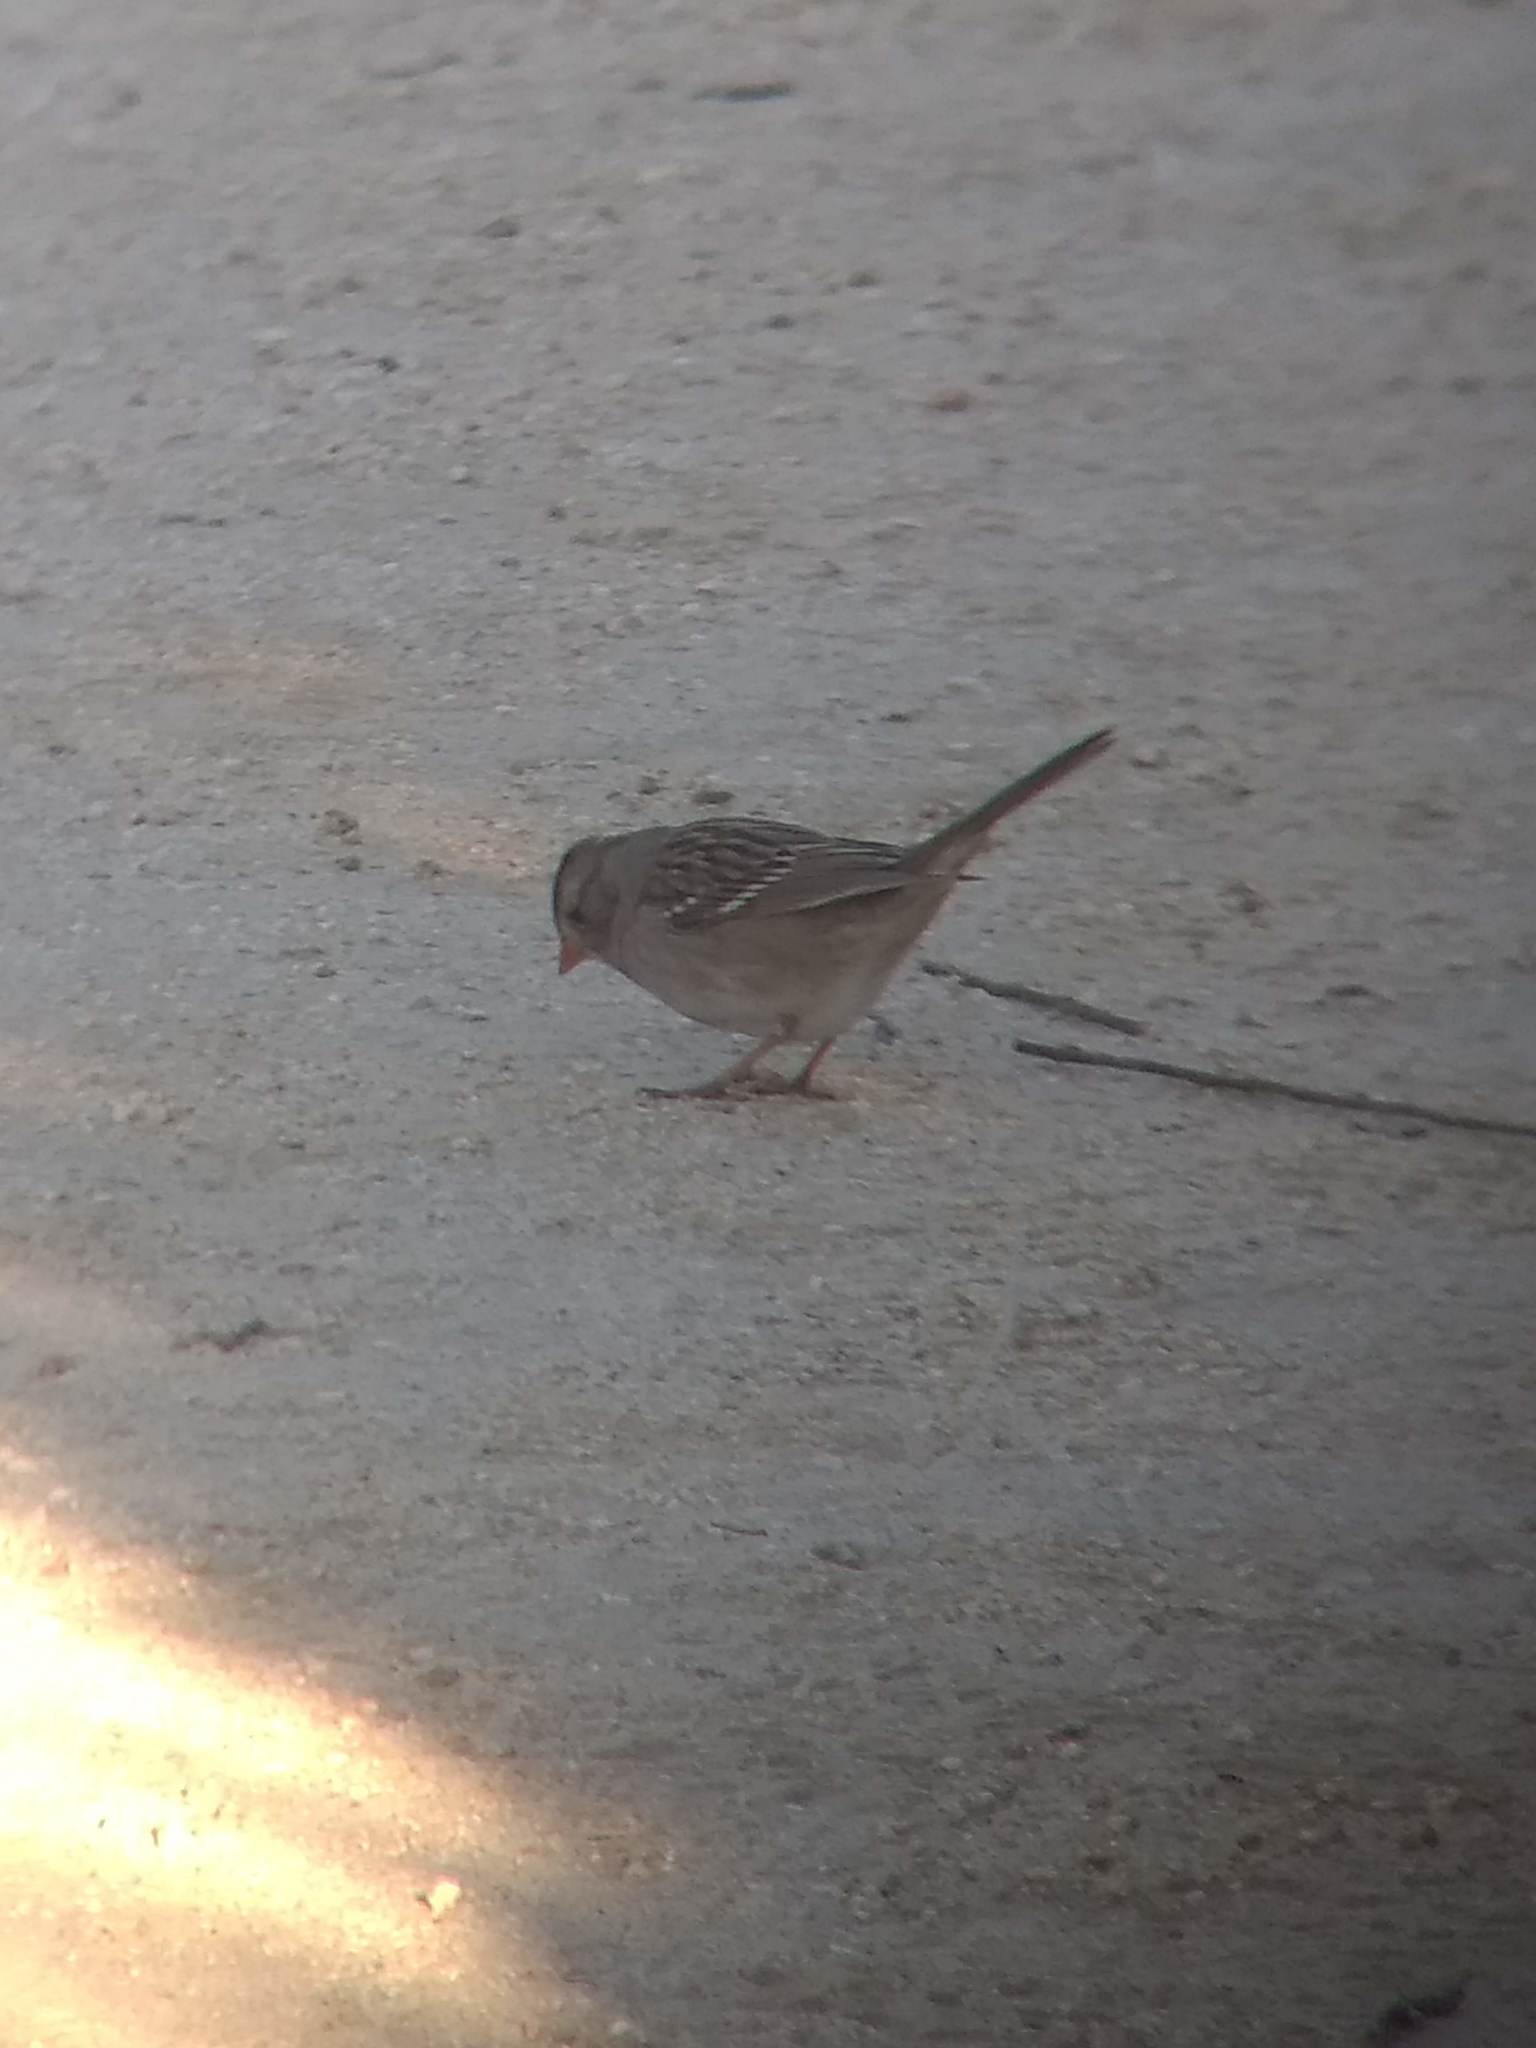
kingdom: Animalia
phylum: Chordata
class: Aves
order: Passeriformes
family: Passerellidae
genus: Zonotrichia
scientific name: Zonotrichia leucophrys
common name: White-crowned sparrow
